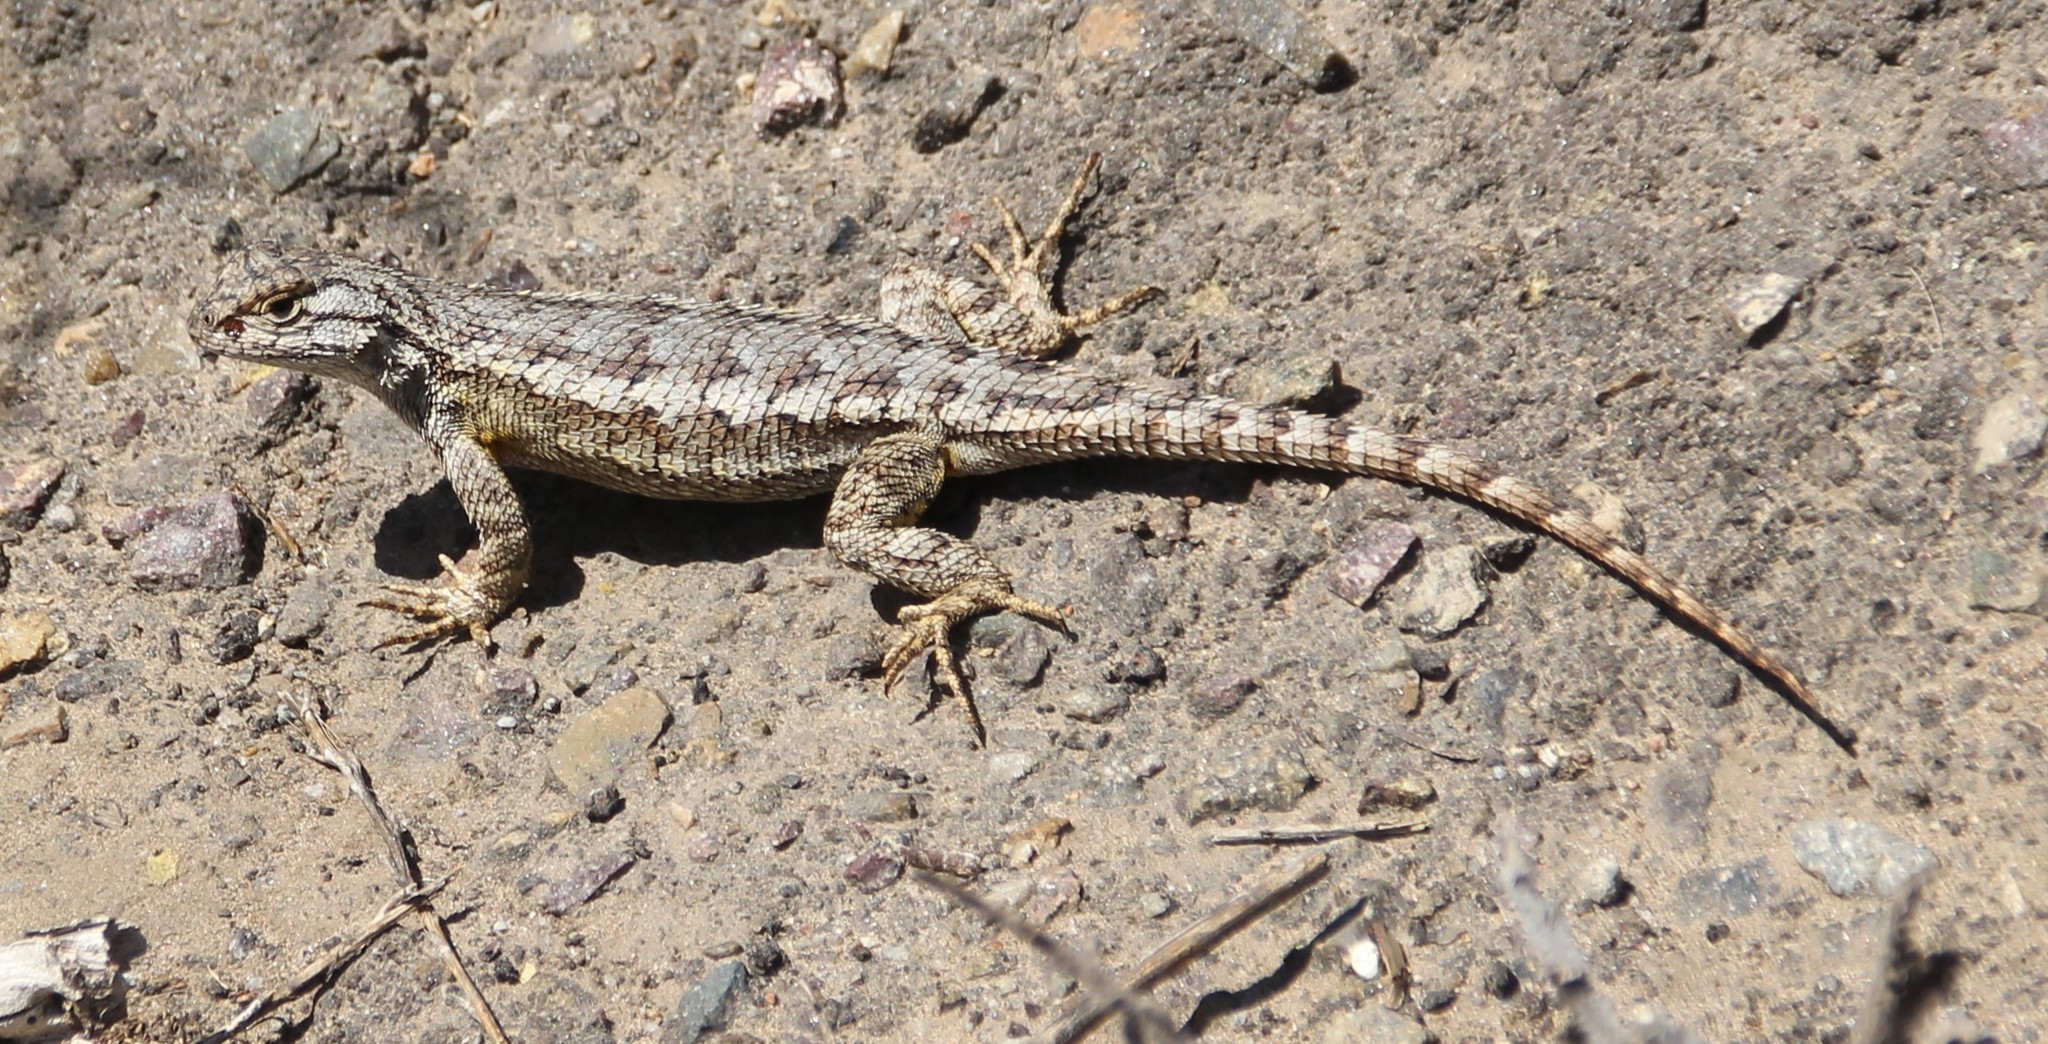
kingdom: Animalia
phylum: Chordata
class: Squamata
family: Phrynosomatidae
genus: Sceloporus
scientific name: Sceloporus occidentalis
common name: Western fence lizard
